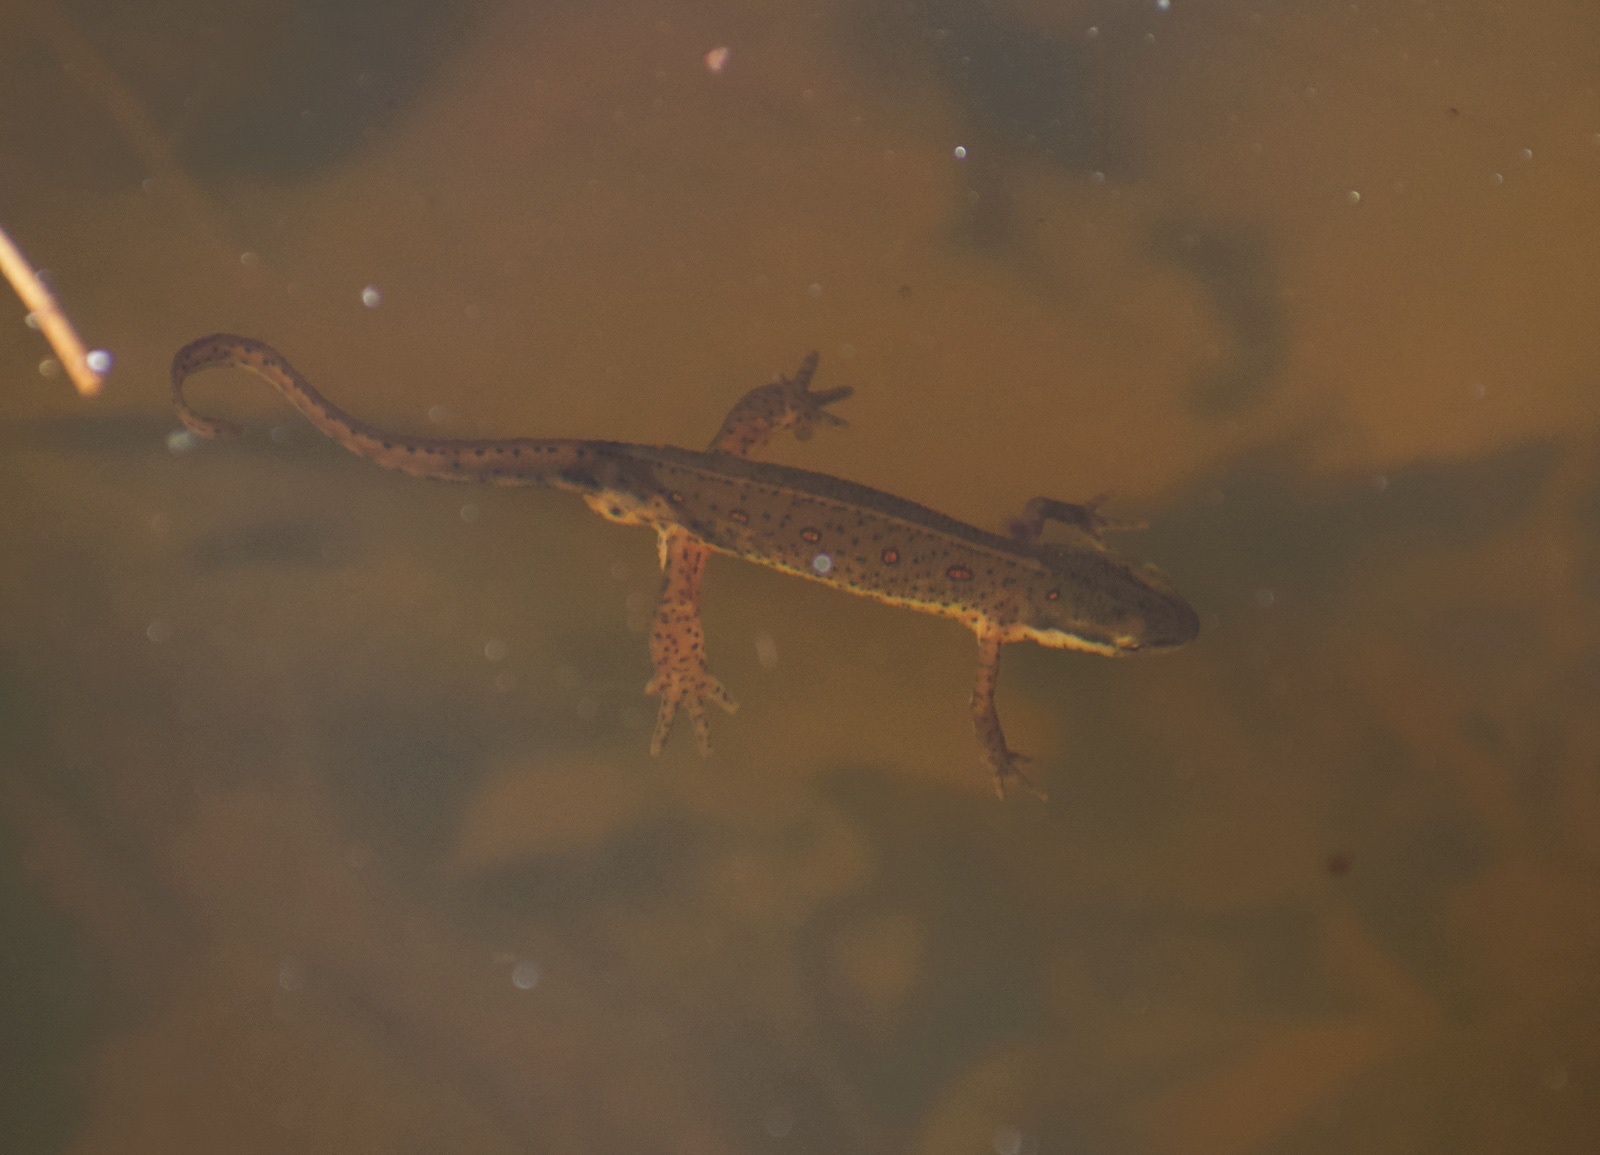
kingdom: Animalia
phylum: Chordata
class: Amphibia
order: Caudata
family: Salamandridae
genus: Notophthalmus
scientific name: Notophthalmus viridescens
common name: Eastern newt
